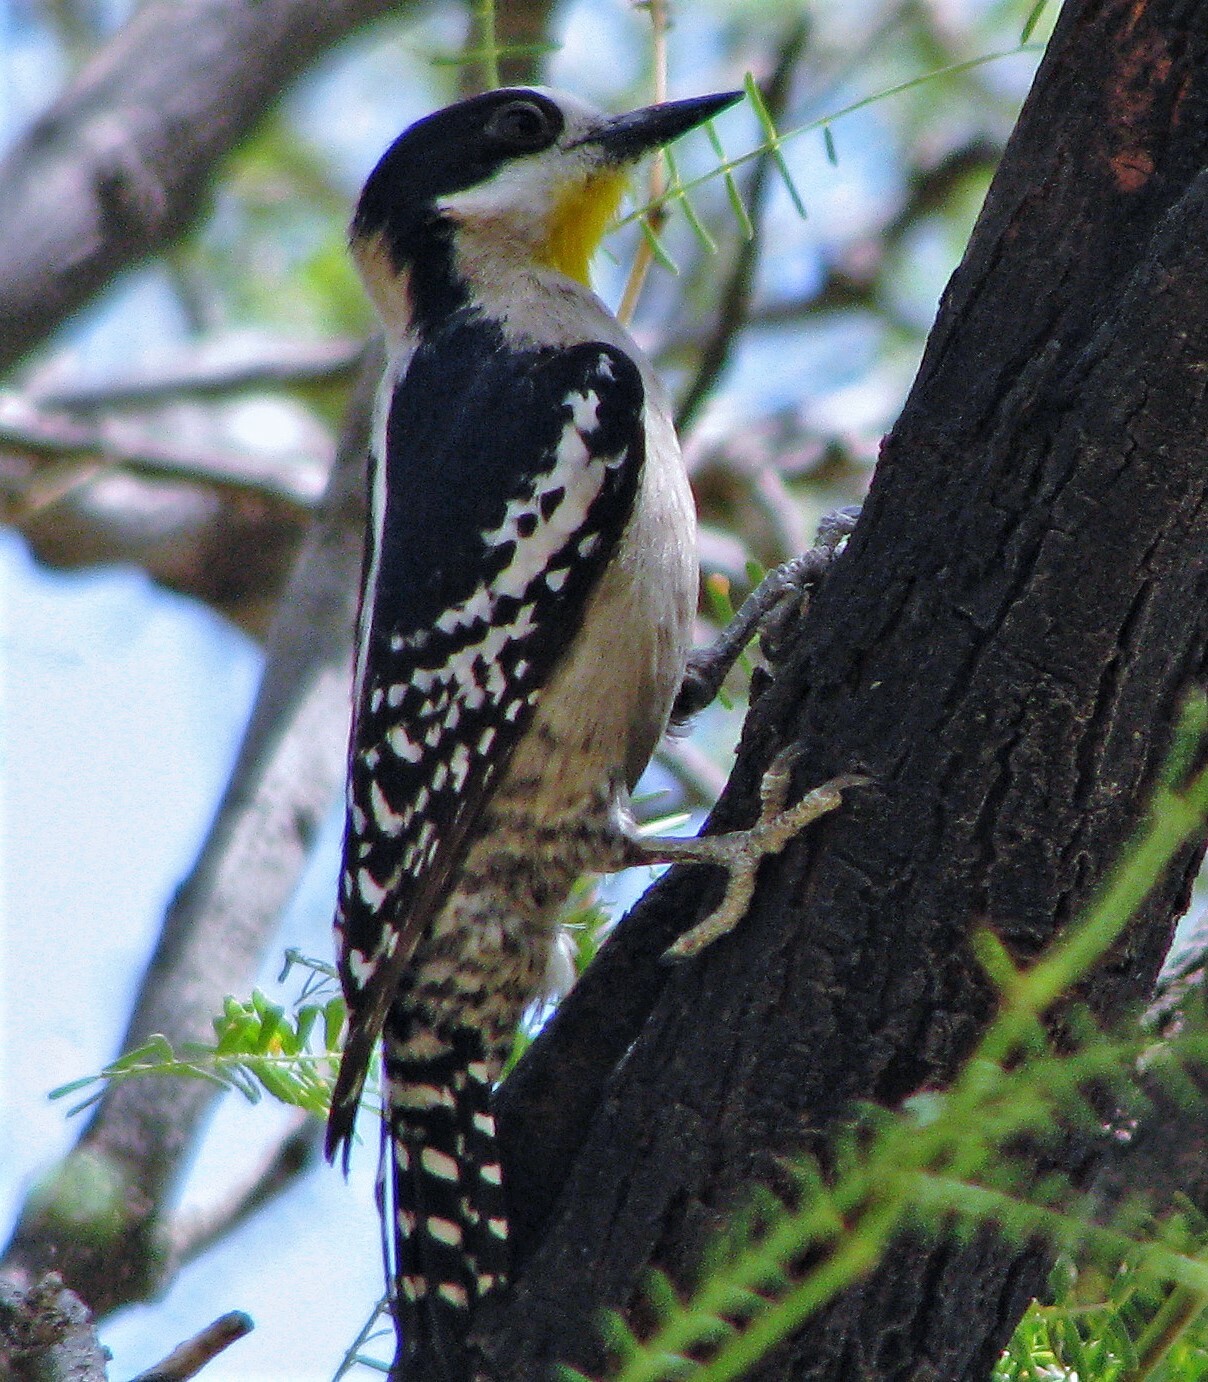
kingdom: Animalia
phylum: Chordata
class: Aves
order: Piciformes
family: Picidae
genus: Melanerpes
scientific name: Melanerpes cactorum
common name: White-fronted woodpecker
